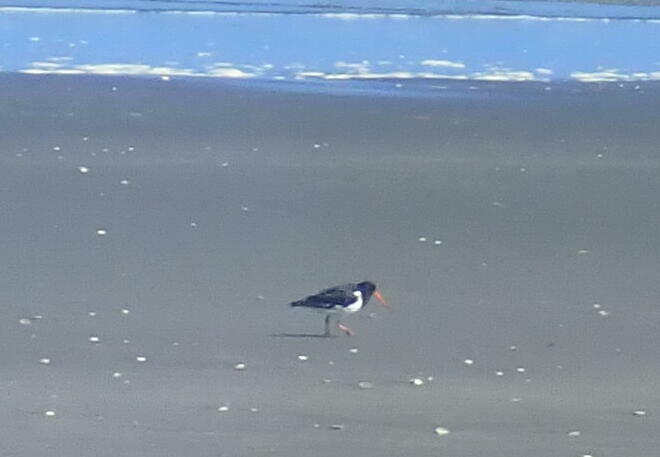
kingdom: Animalia
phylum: Chordata
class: Aves
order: Charadriiformes
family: Haematopodidae
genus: Haematopus
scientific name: Haematopus finschi
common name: South island oystercatcher
